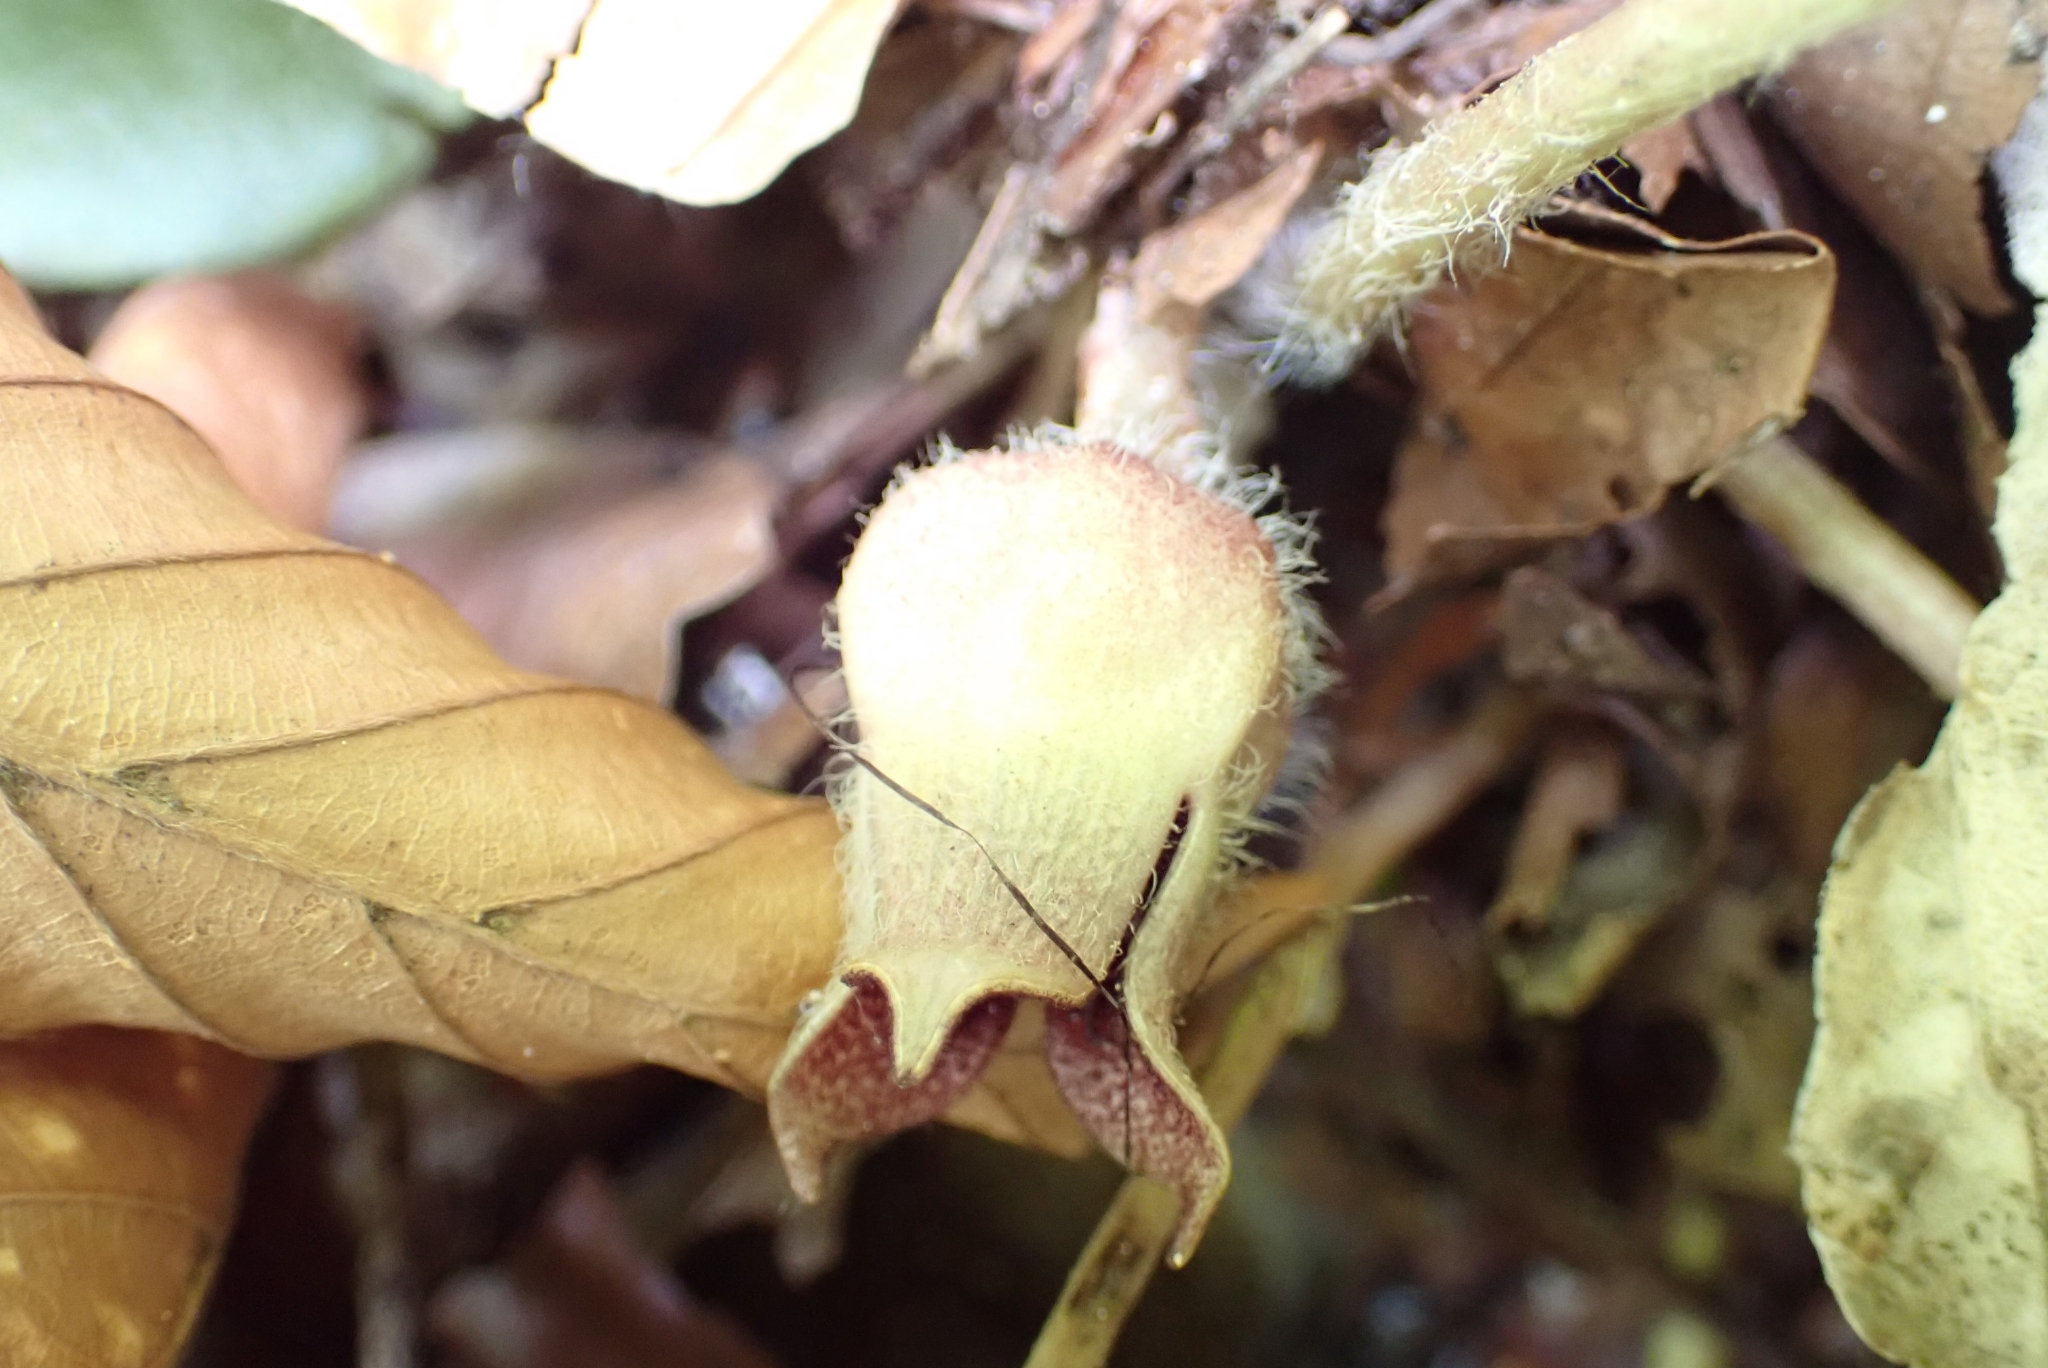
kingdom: Plantae
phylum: Tracheophyta
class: Magnoliopsida
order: Piperales
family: Aristolochiaceae
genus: Asarum
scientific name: Asarum europaeum
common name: Asarabacca
